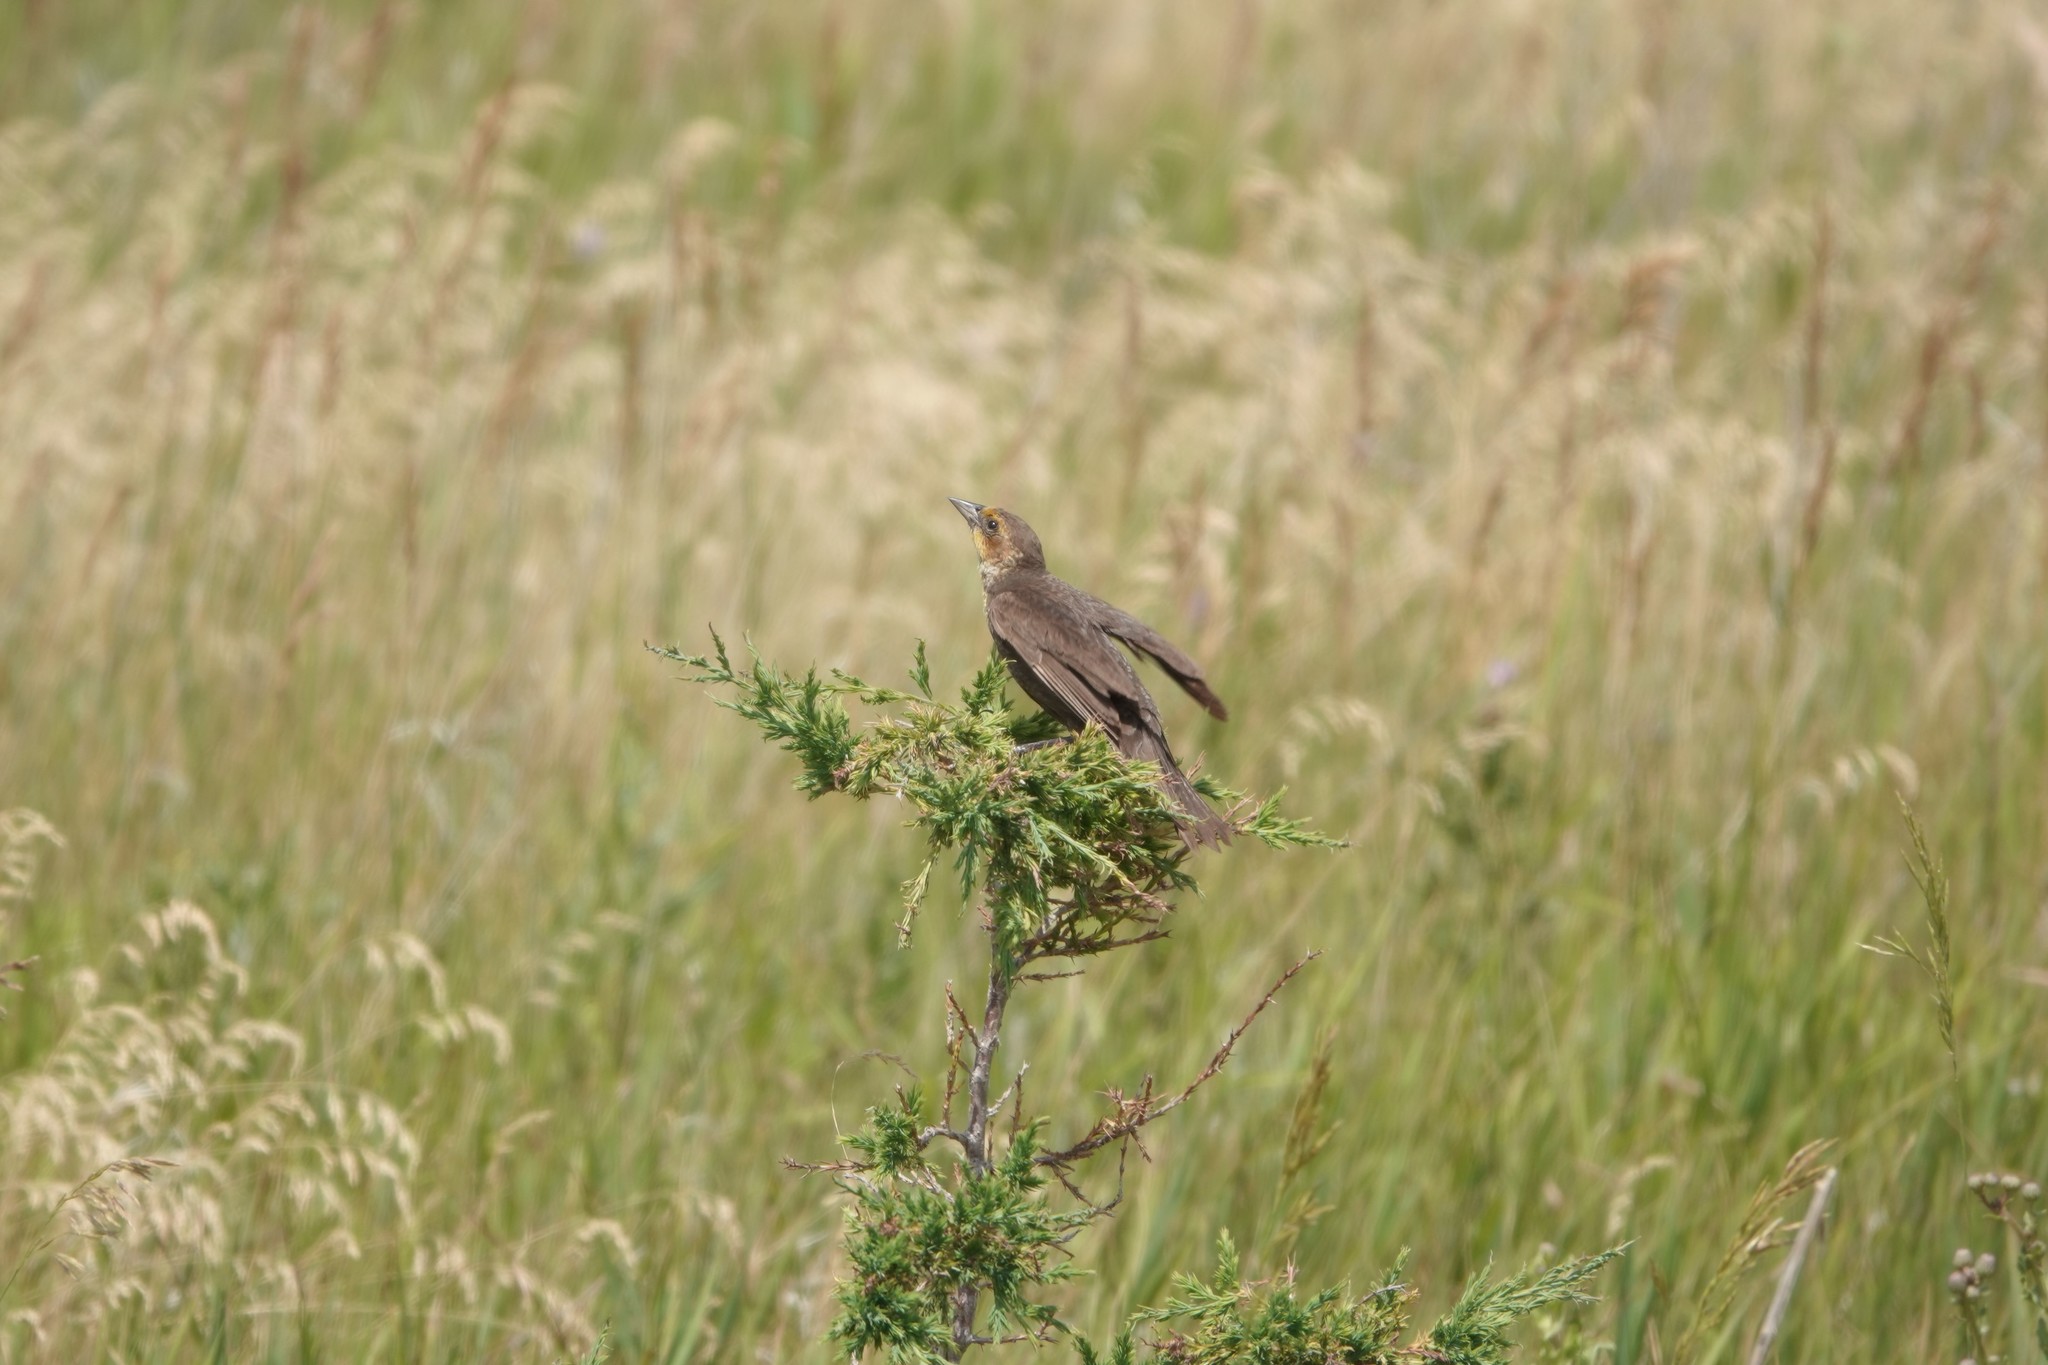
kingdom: Animalia
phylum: Chordata
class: Aves
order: Passeriformes
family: Icteridae
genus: Xanthocephalus
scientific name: Xanthocephalus xanthocephalus
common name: Yellow-headed blackbird
